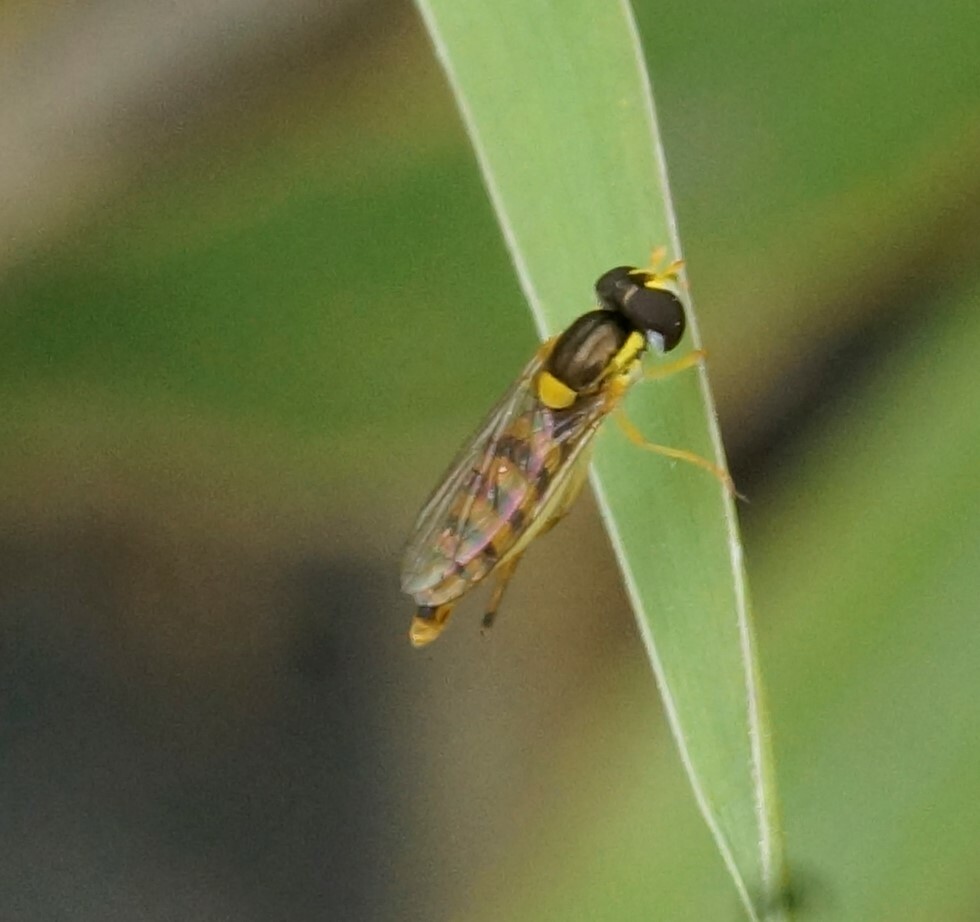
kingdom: Animalia
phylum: Arthropoda
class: Insecta
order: Diptera
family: Syrphidae
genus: Sphaerophoria
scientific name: Sphaerophoria macrogaster
